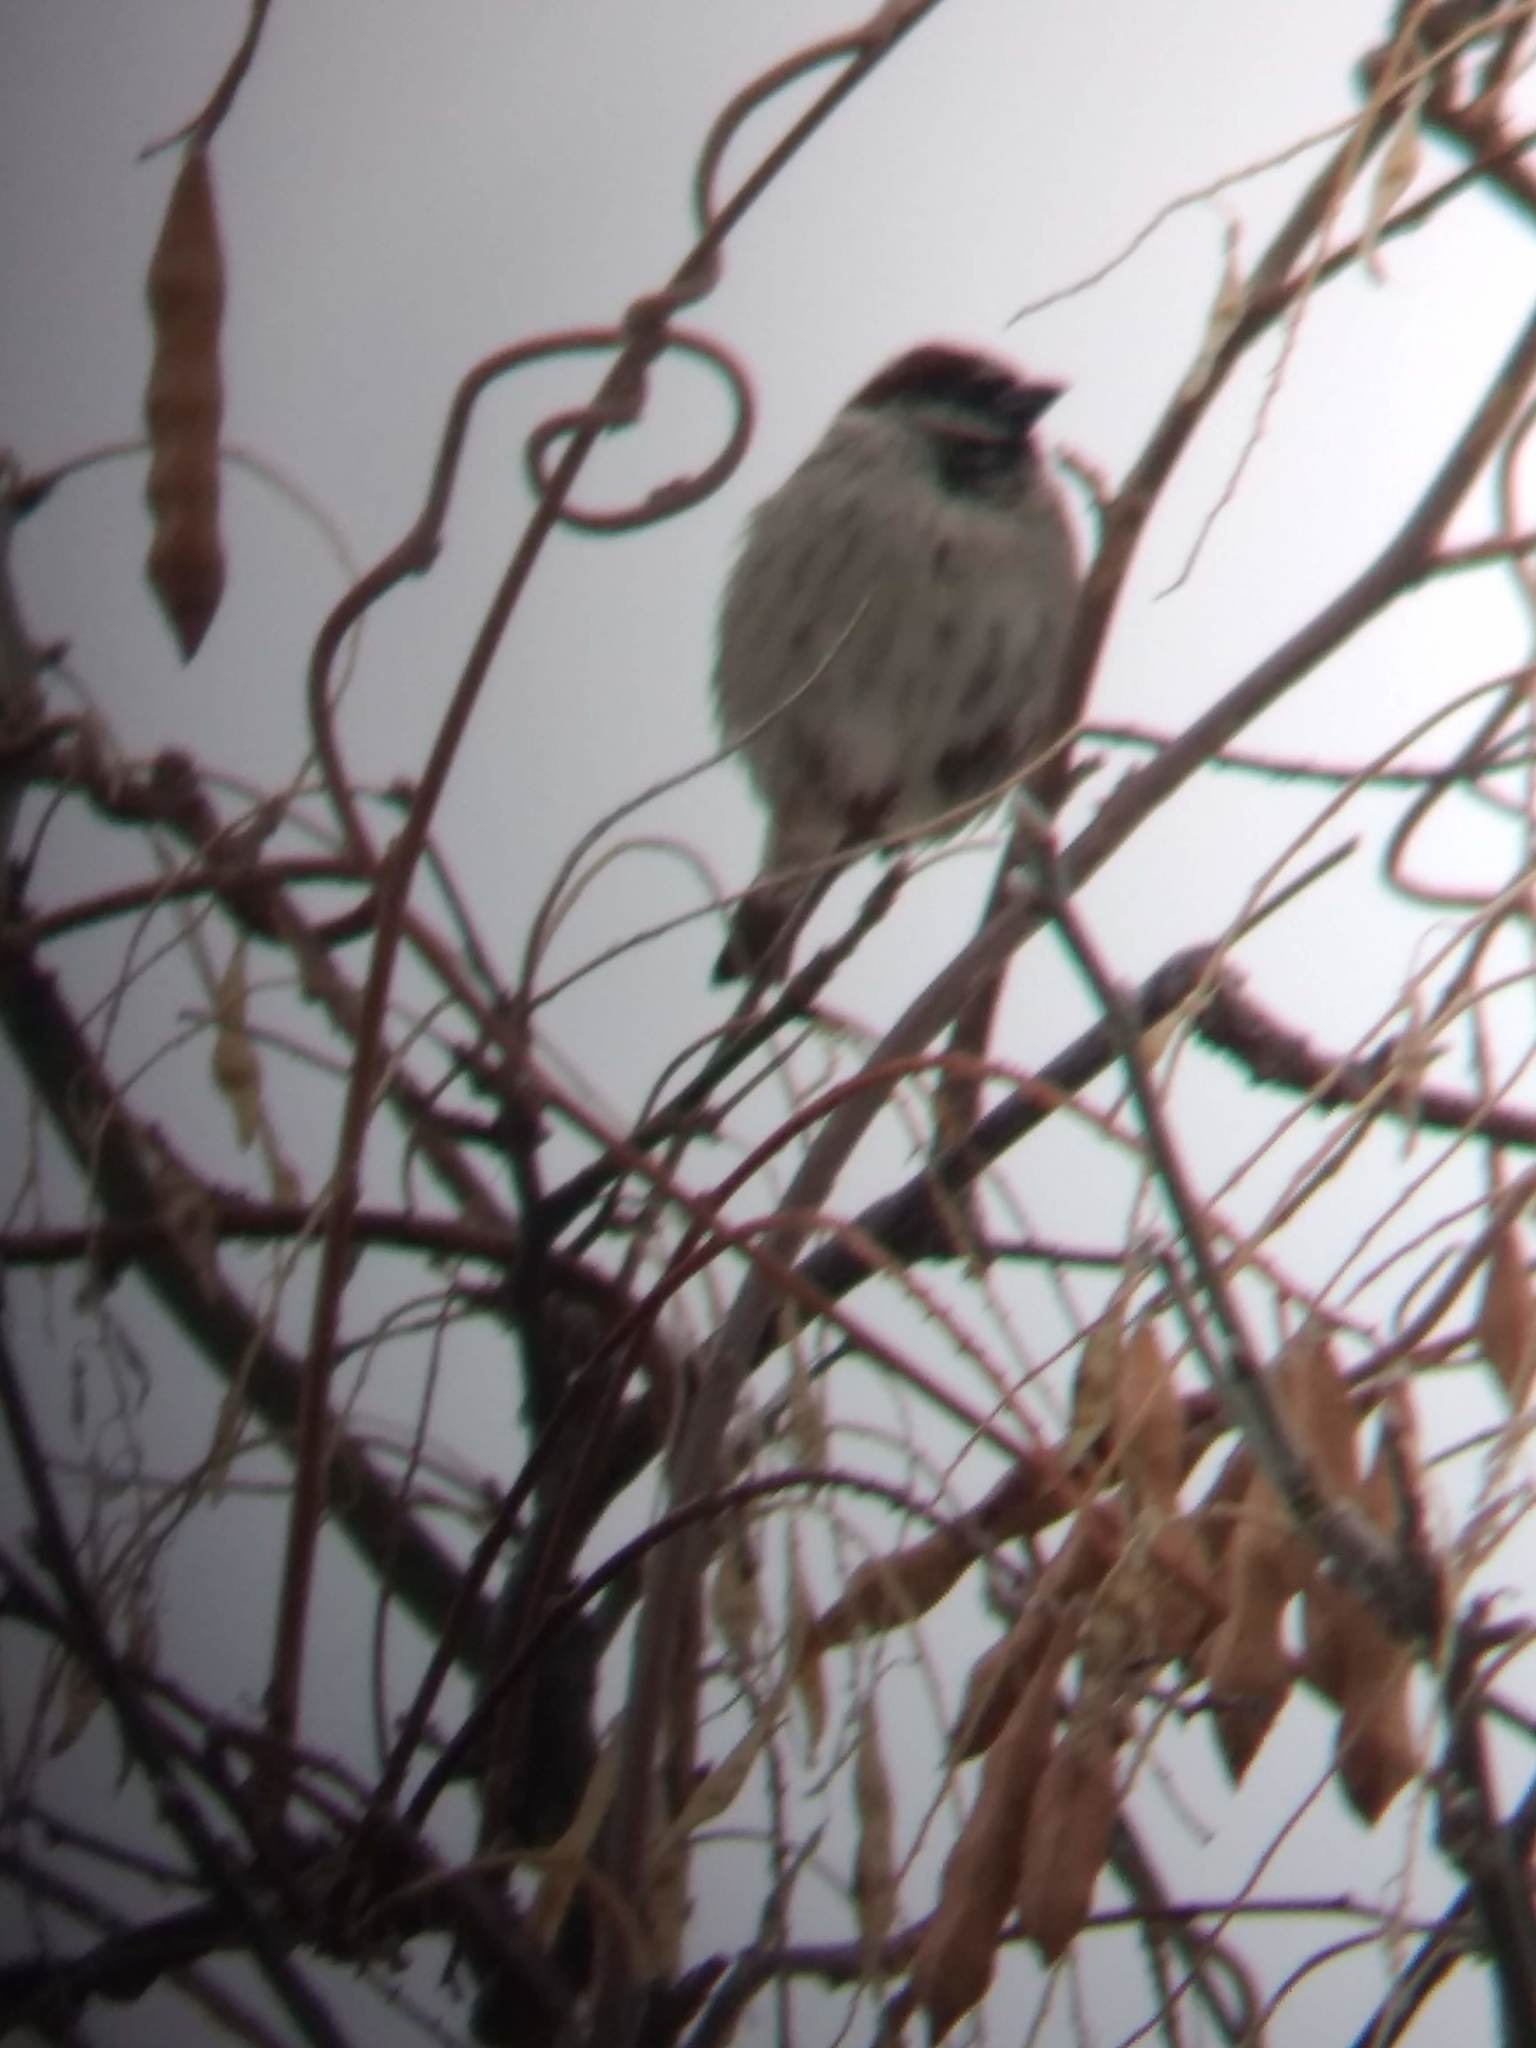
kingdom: Animalia
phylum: Chordata
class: Aves
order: Passeriformes
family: Passeridae
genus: Passer
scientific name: Passer domesticus
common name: House sparrow
